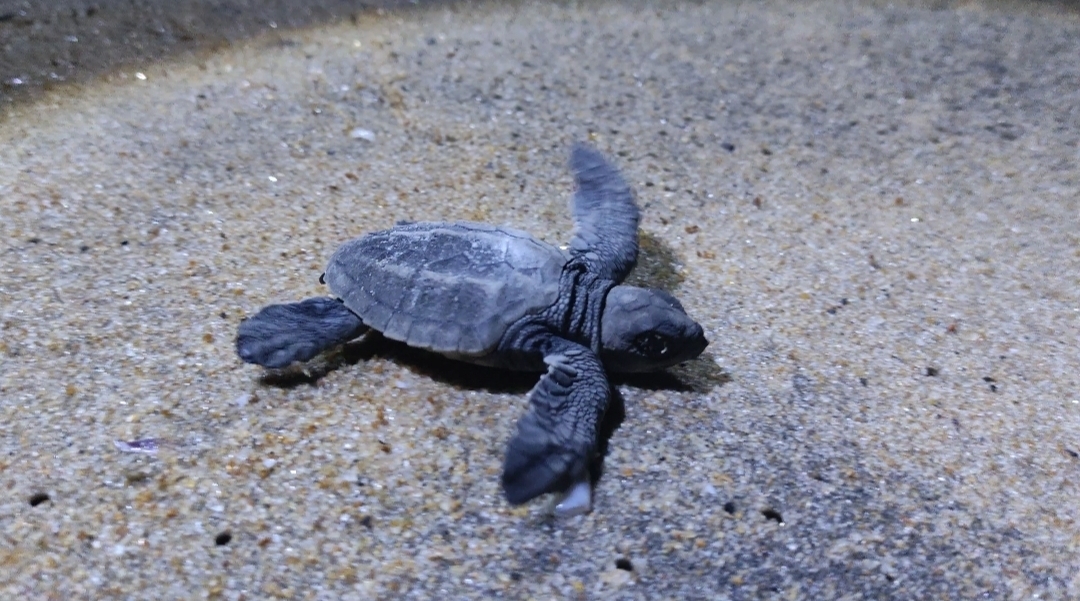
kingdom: Animalia
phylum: Chordata
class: Testudines
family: Cheloniidae
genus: Lepidochelys
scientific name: Lepidochelys olivacea
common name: Olive ridley
